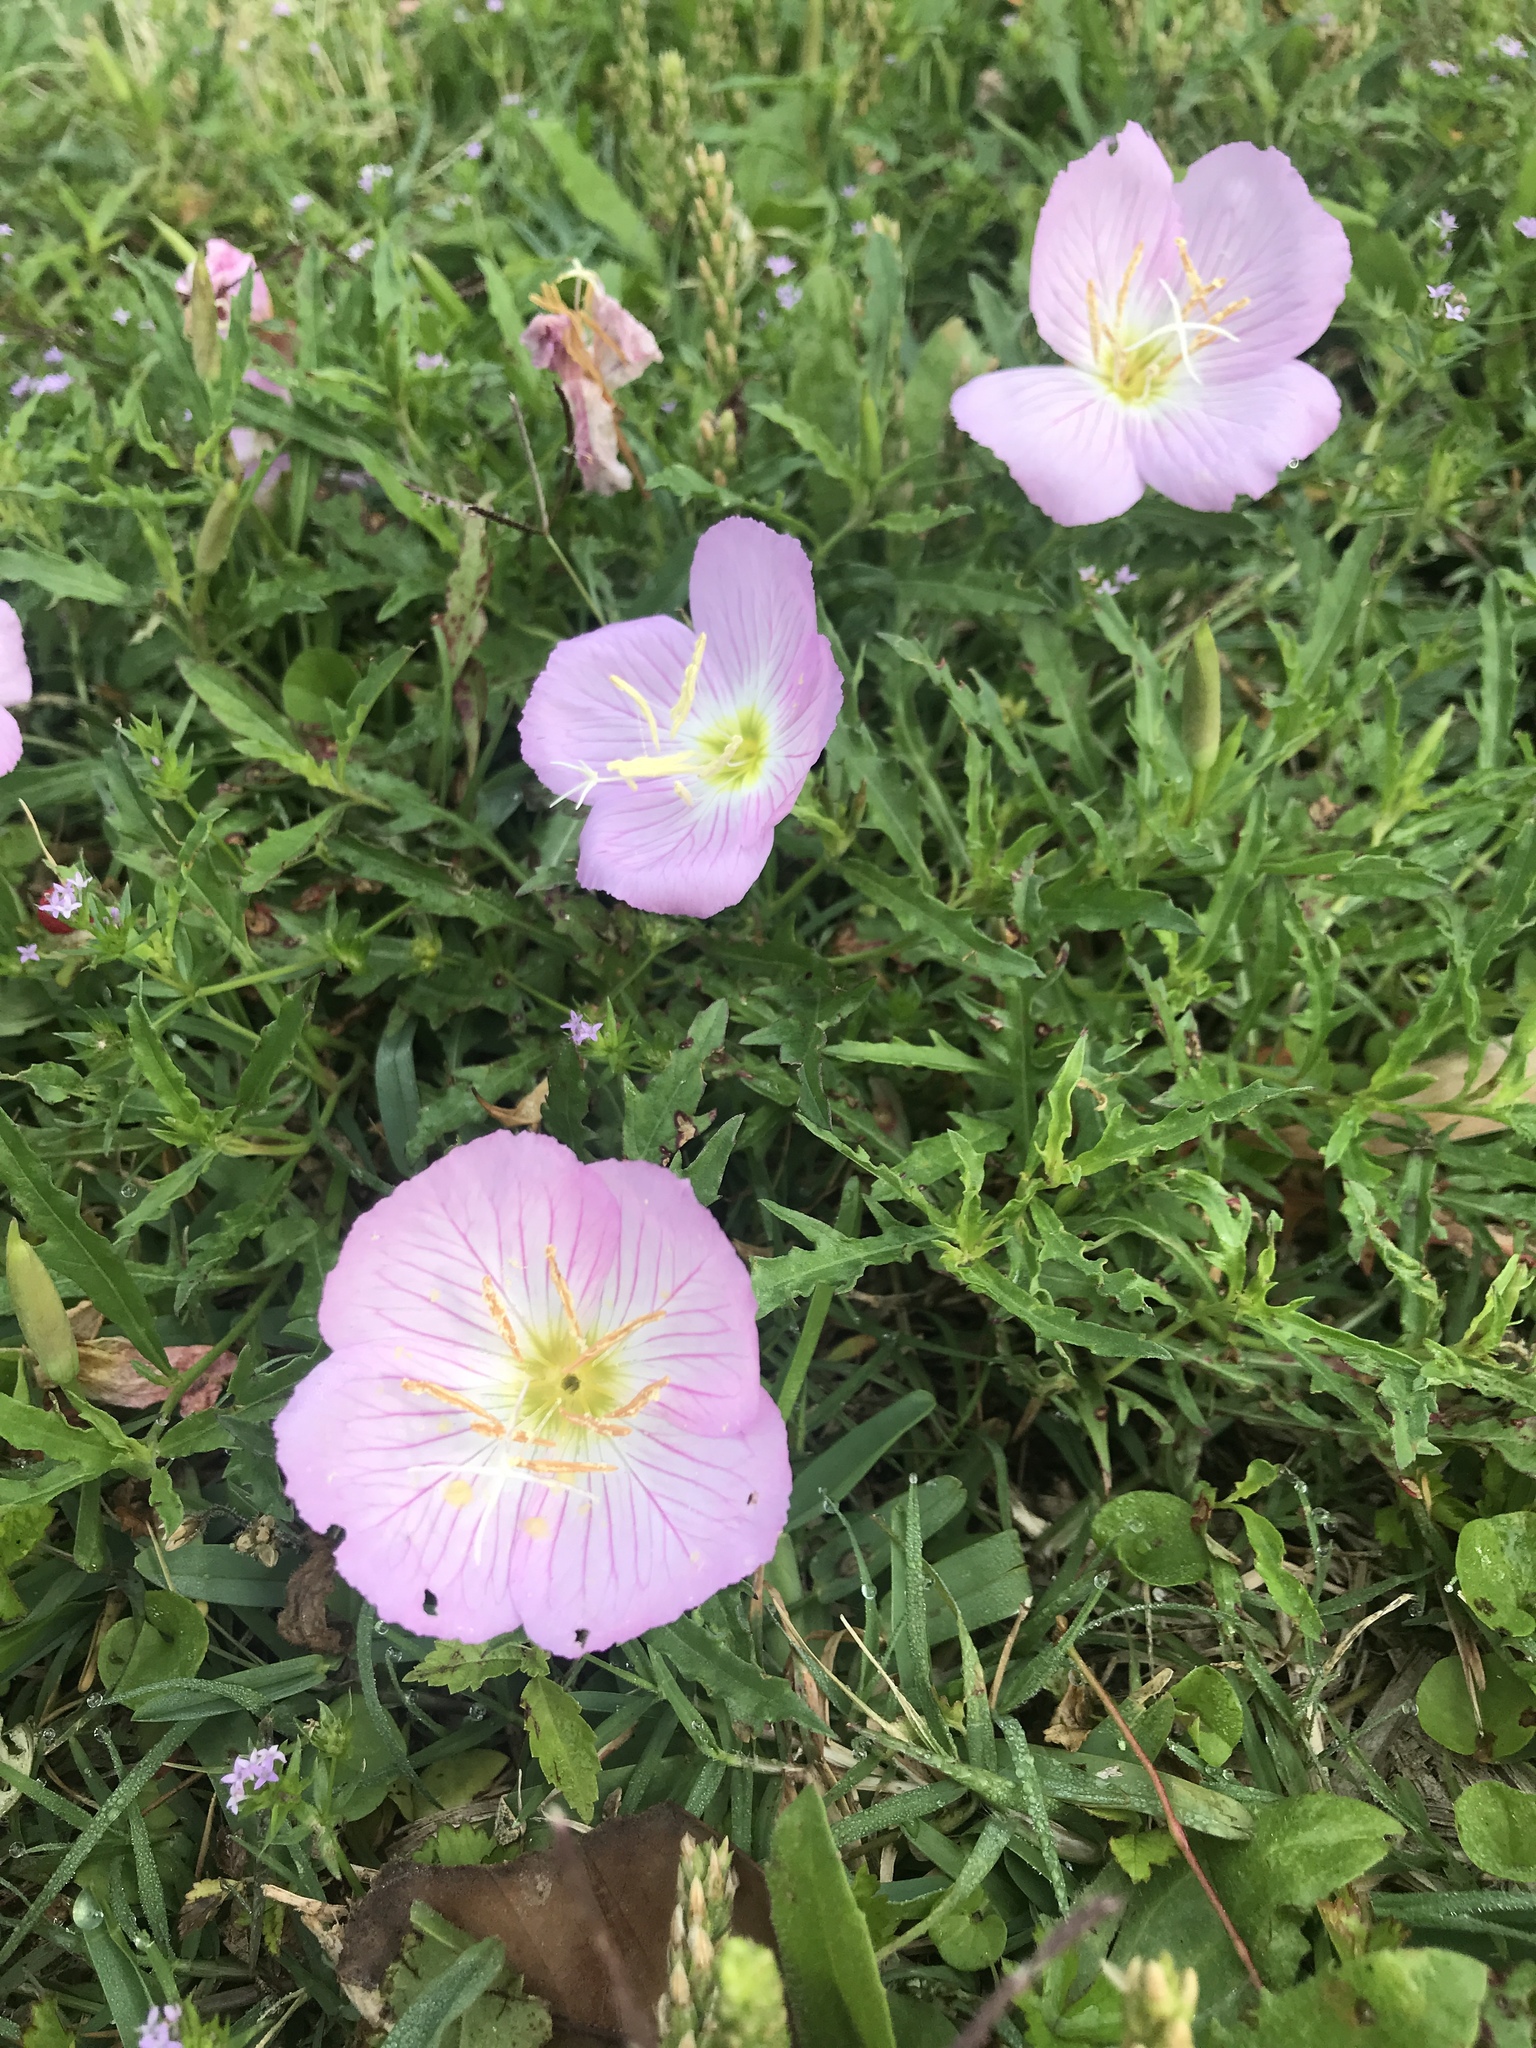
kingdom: Plantae
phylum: Tracheophyta
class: Magnoliopsida
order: Myrtales
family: Onagraceae
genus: Oenothera
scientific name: Oenothera speciosa
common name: White evening-primrose
